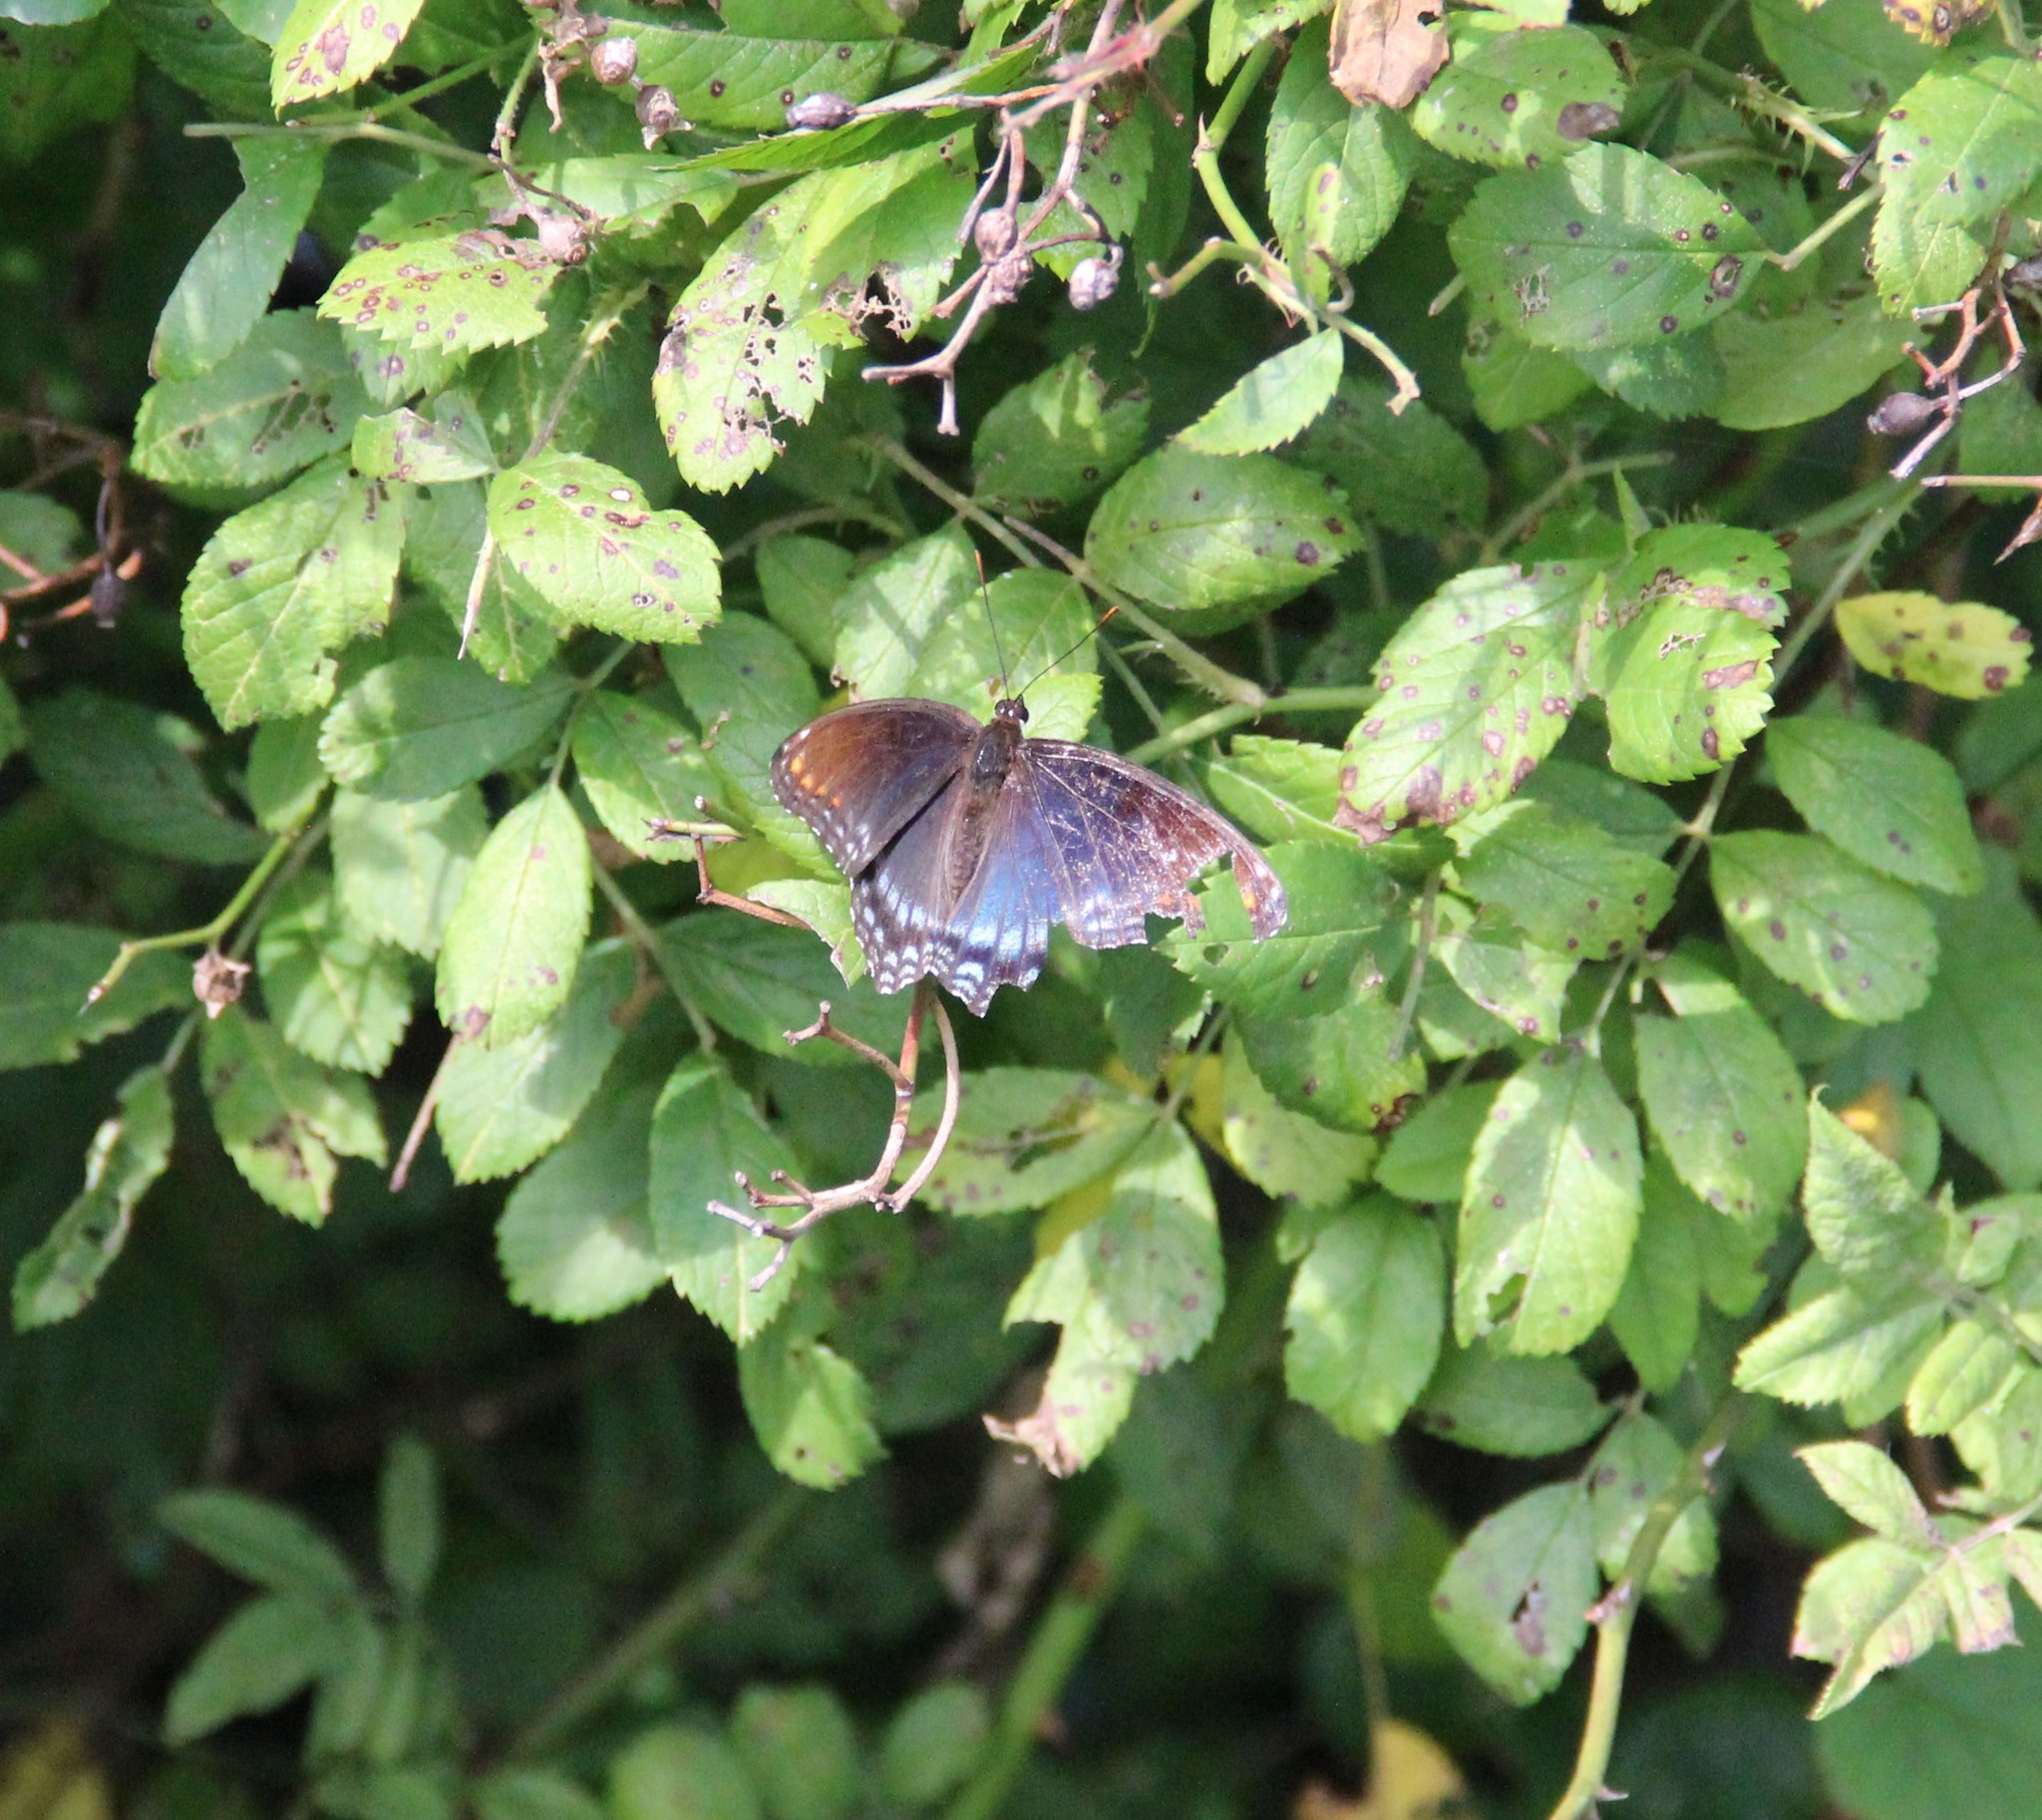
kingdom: Animalia
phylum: Arthropoda
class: Insecta
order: Lepidoptera
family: Nymphalidae
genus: Limenitis
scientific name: Limenitis astyanax
